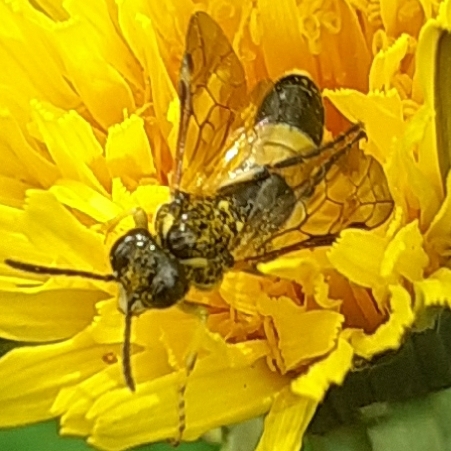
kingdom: Animalia
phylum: Arthropoda
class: Insecta
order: Hymenoptera
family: Tenthredinidae
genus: Paratenthredo
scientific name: Paratenthredo frauenfeldii
